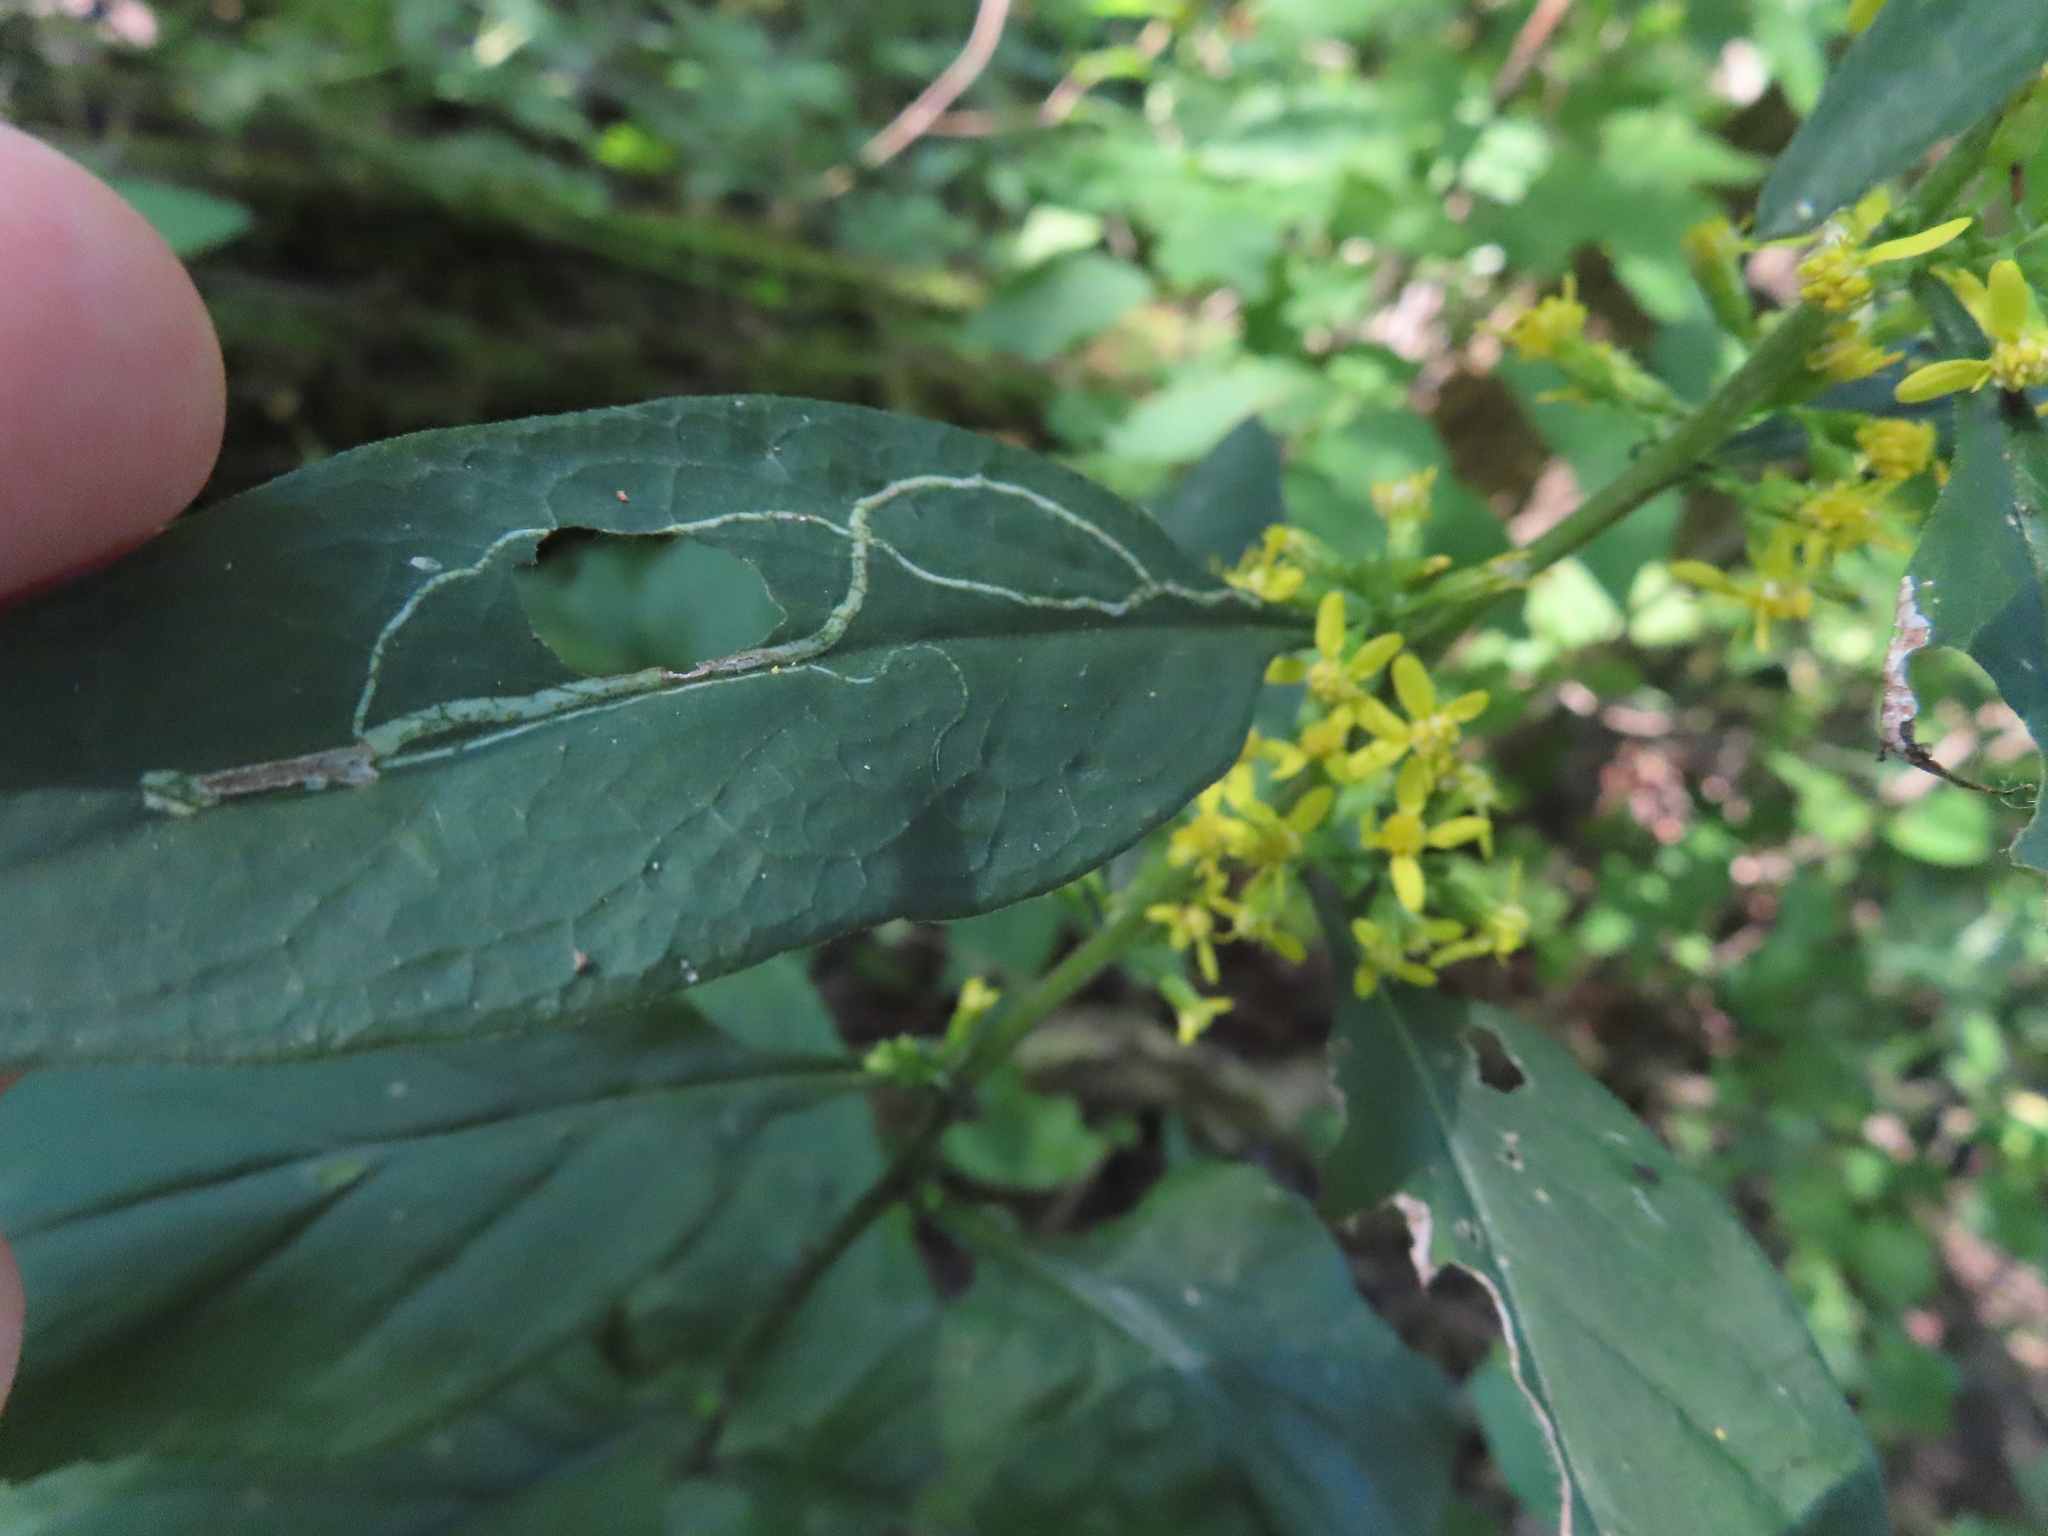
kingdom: Animalia
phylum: Arthropoda
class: Insecta
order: Diptera
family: Agromyzidae
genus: Ophiomyia
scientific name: Ophiomyia maura
